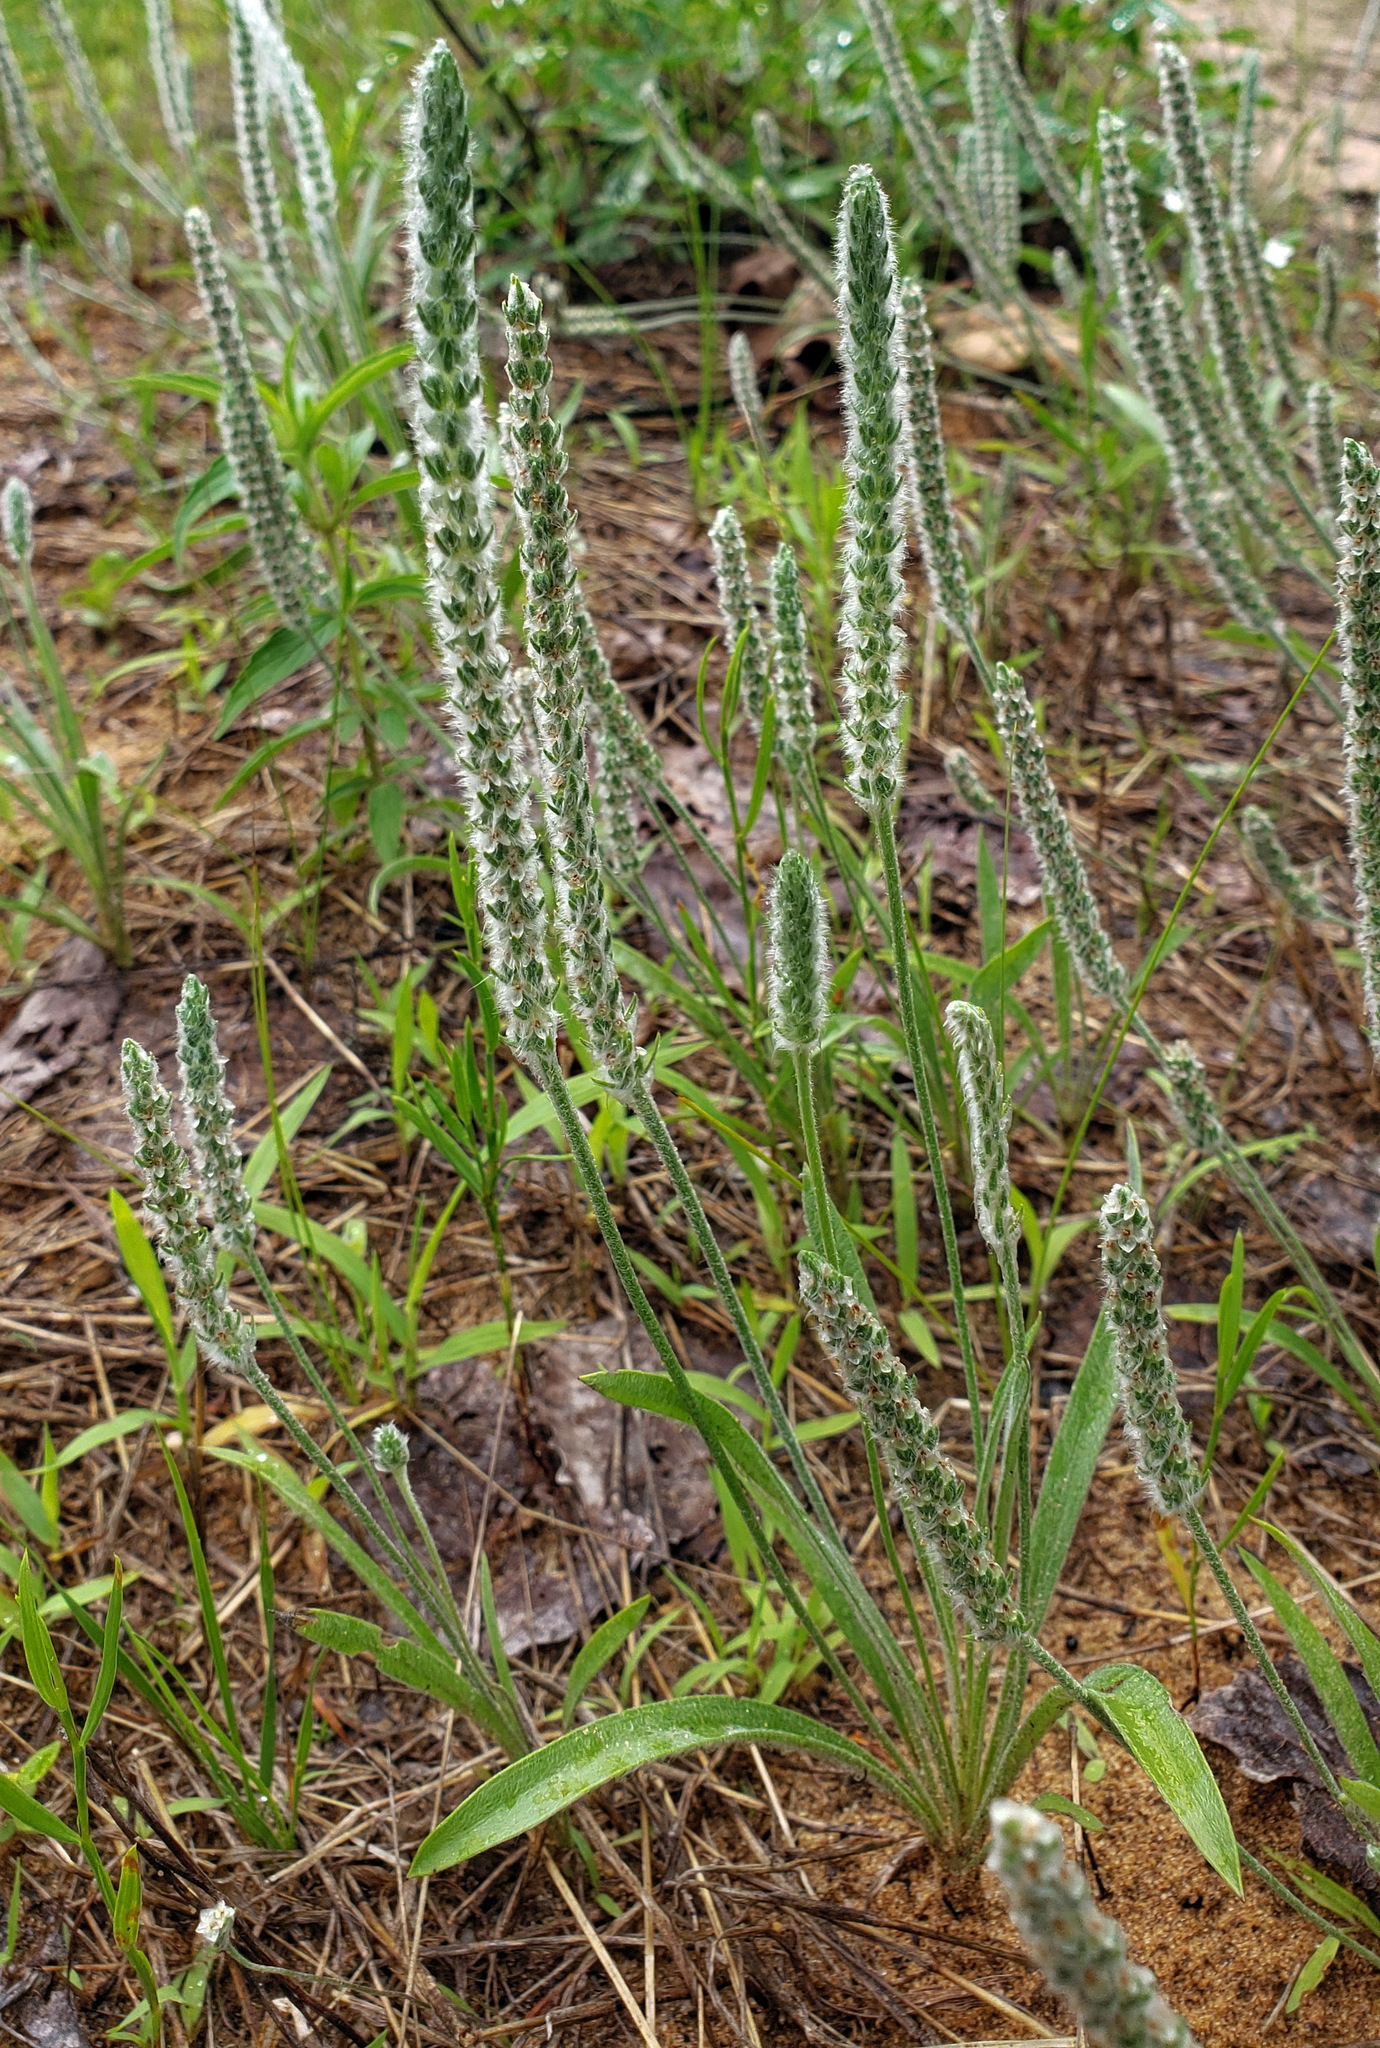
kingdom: Plantae
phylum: Tracheophyta
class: Magnoliopsida
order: Lamiales
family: Plantaginaceae
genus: Plantago
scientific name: Plantago patagonica
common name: Patagonia indian-wheat
